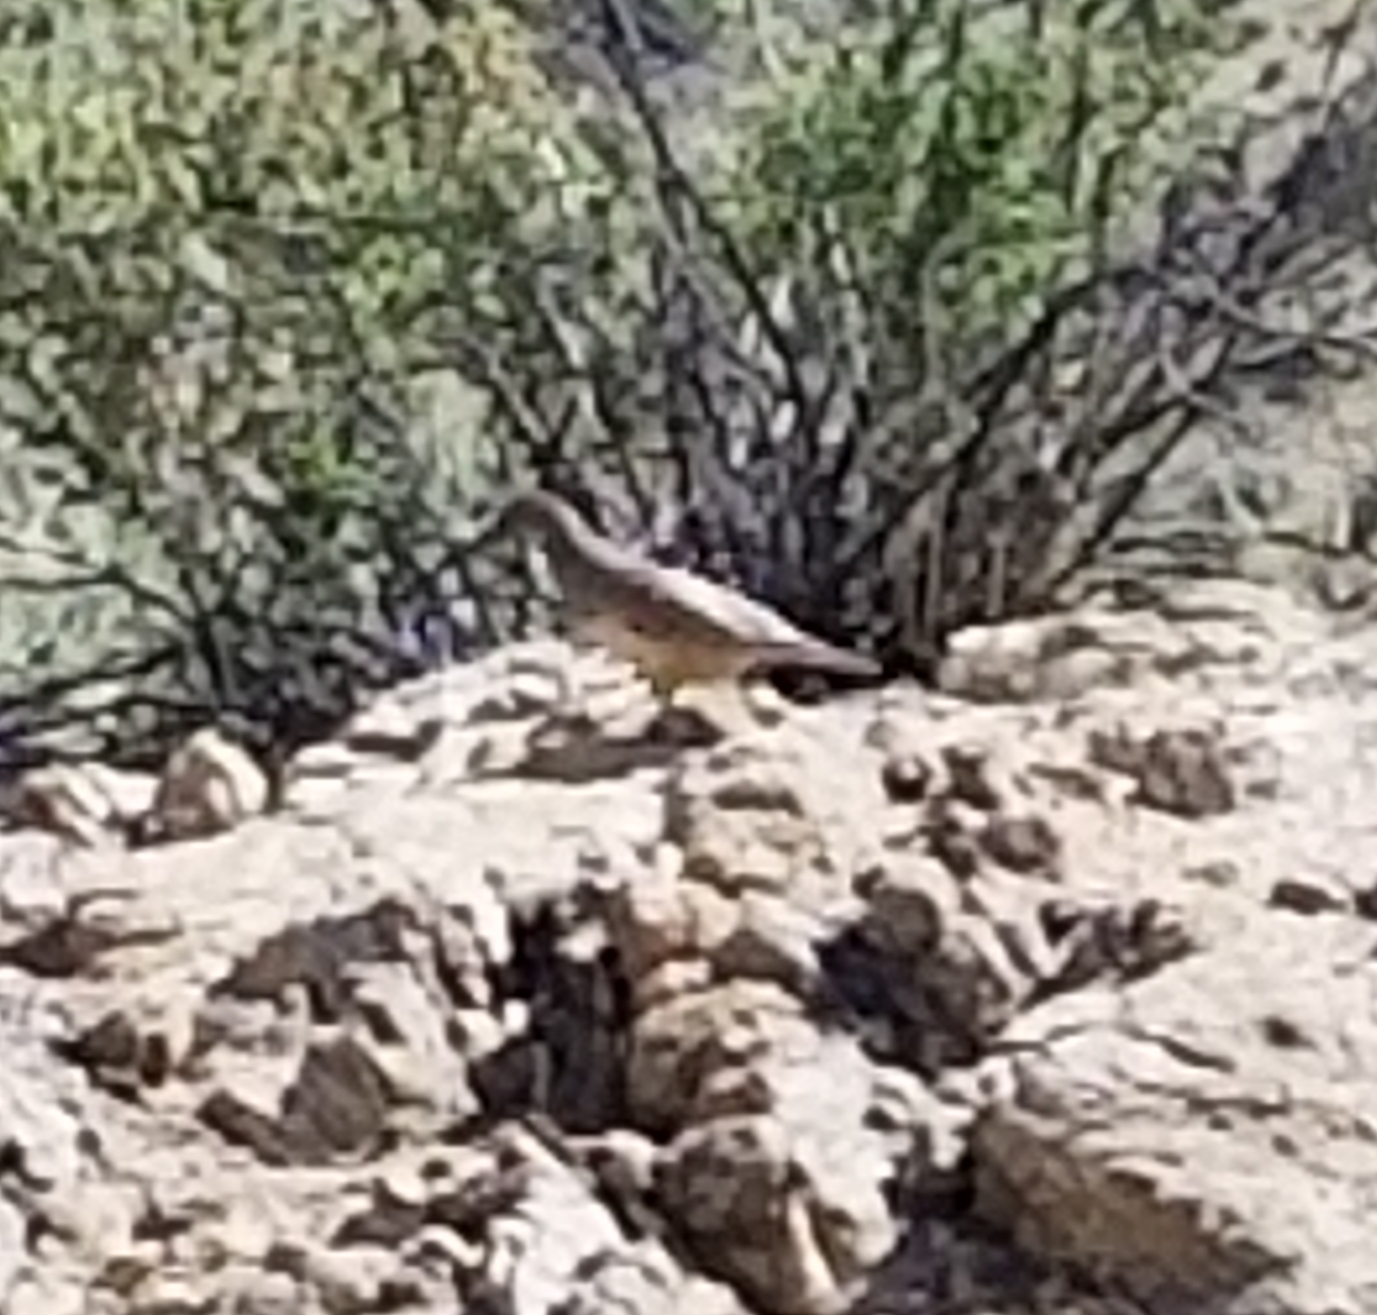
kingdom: Animalia
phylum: Chordata
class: Aves
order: Galliformes
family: Odontophoridae
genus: Callipepla
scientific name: Callipepla gambelii
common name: Gambel's quail
